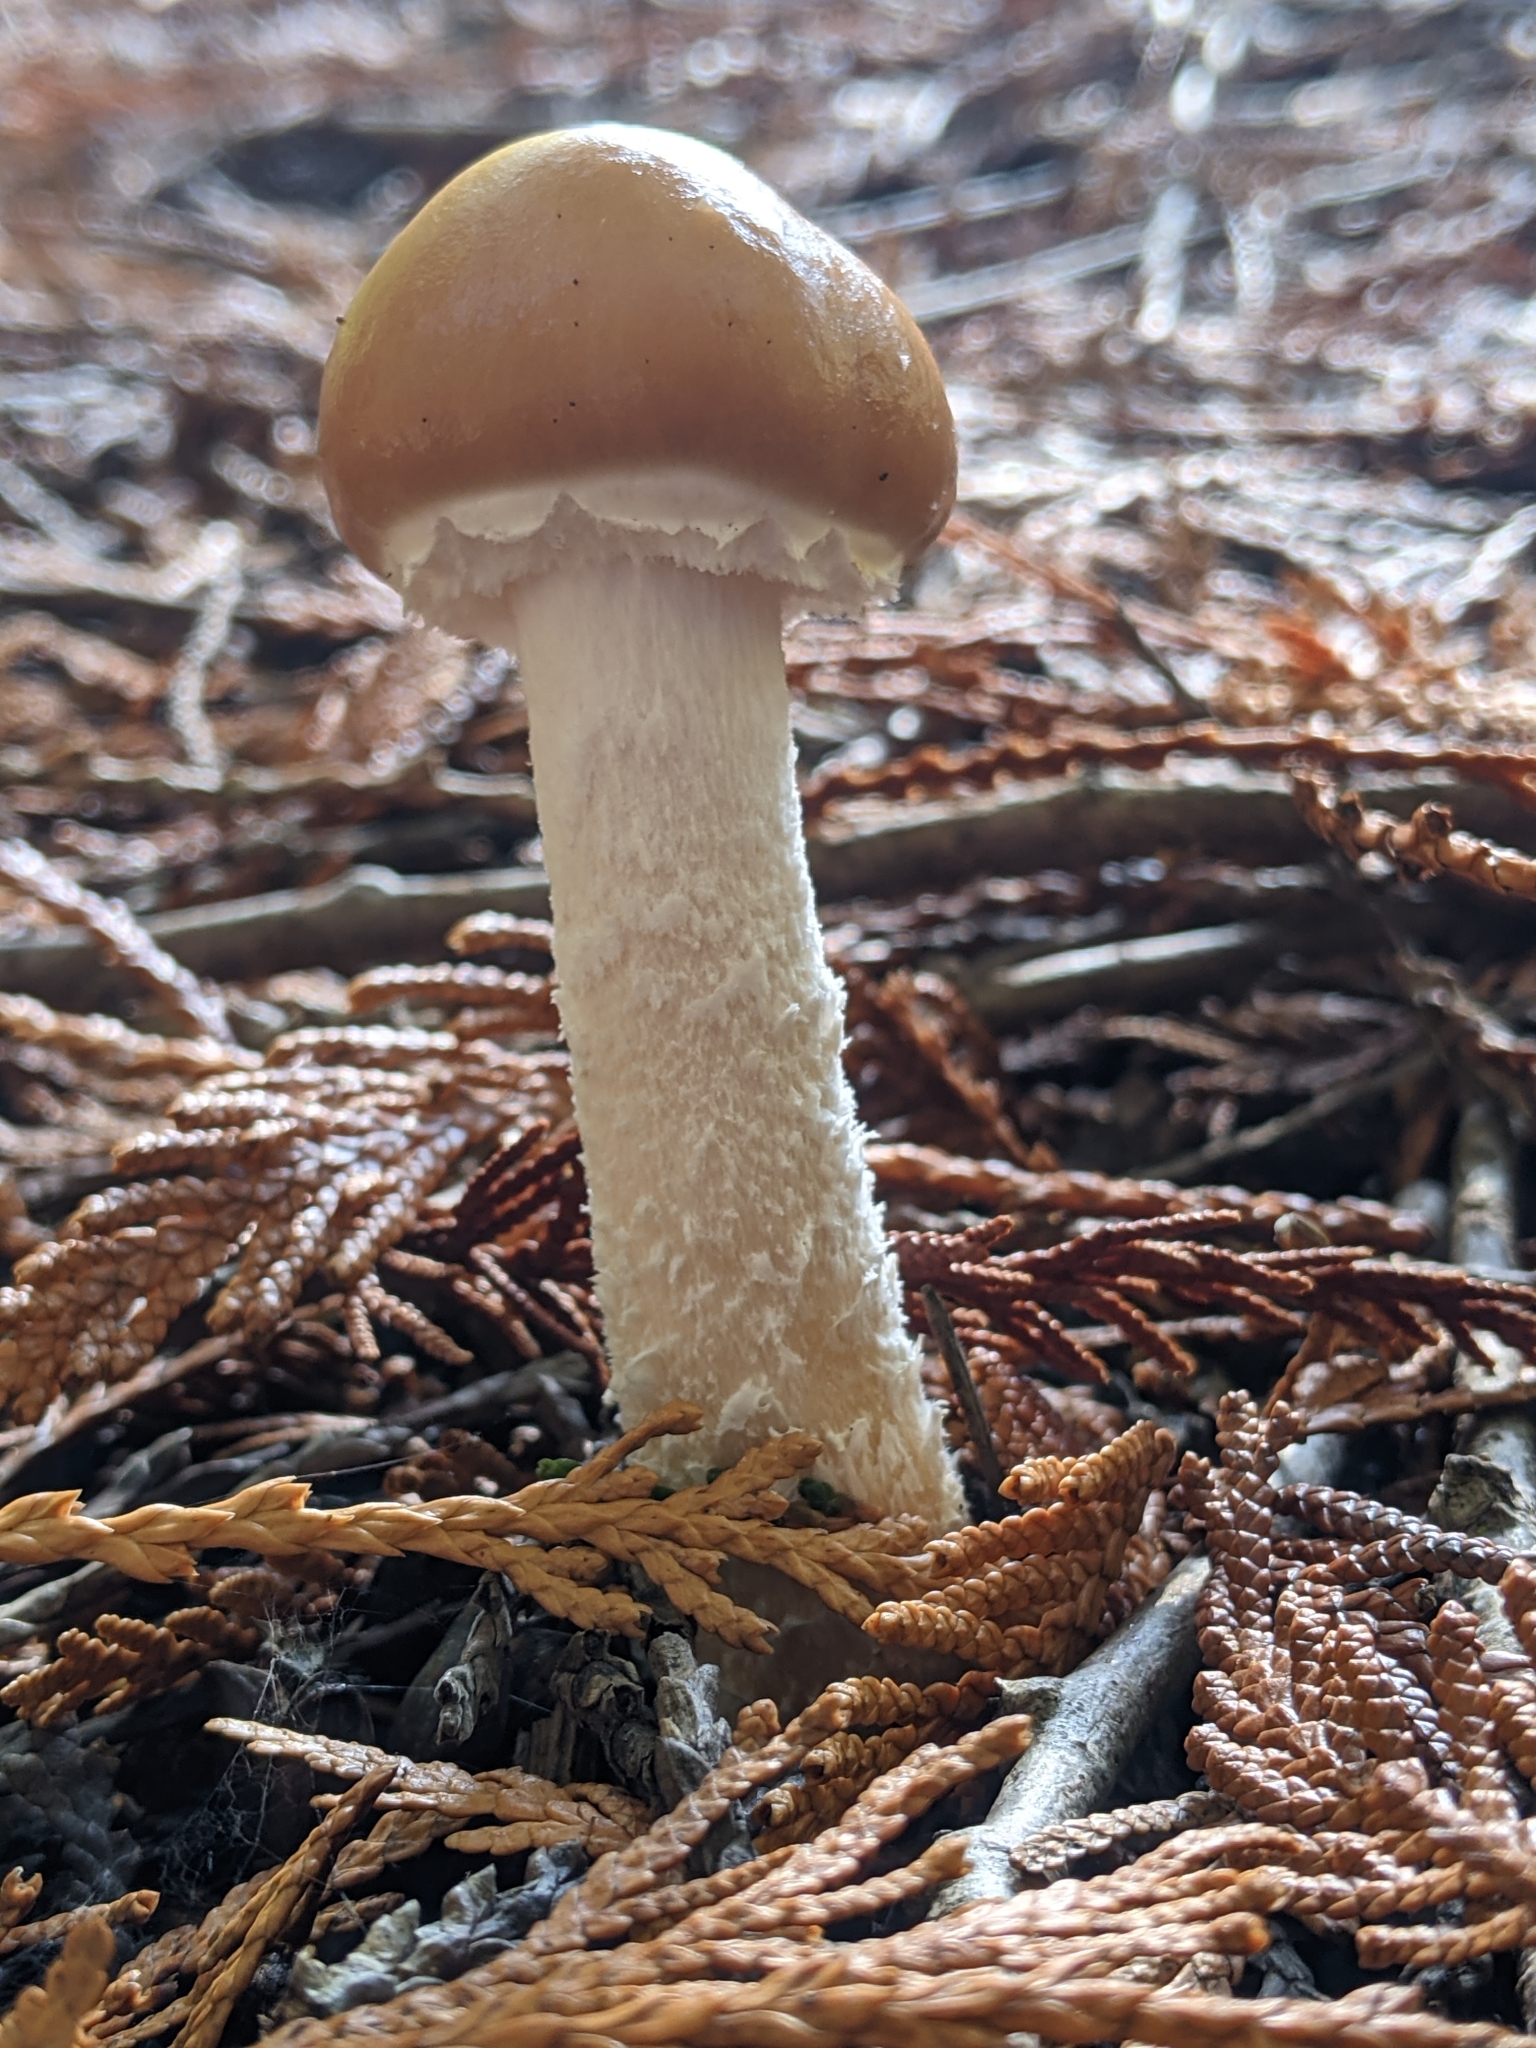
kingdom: Fungi
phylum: Basidiomycota
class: Agaricomycetes
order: Agaricales
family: Strophariaceae
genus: Stropharia
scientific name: Stropharia ambigua
